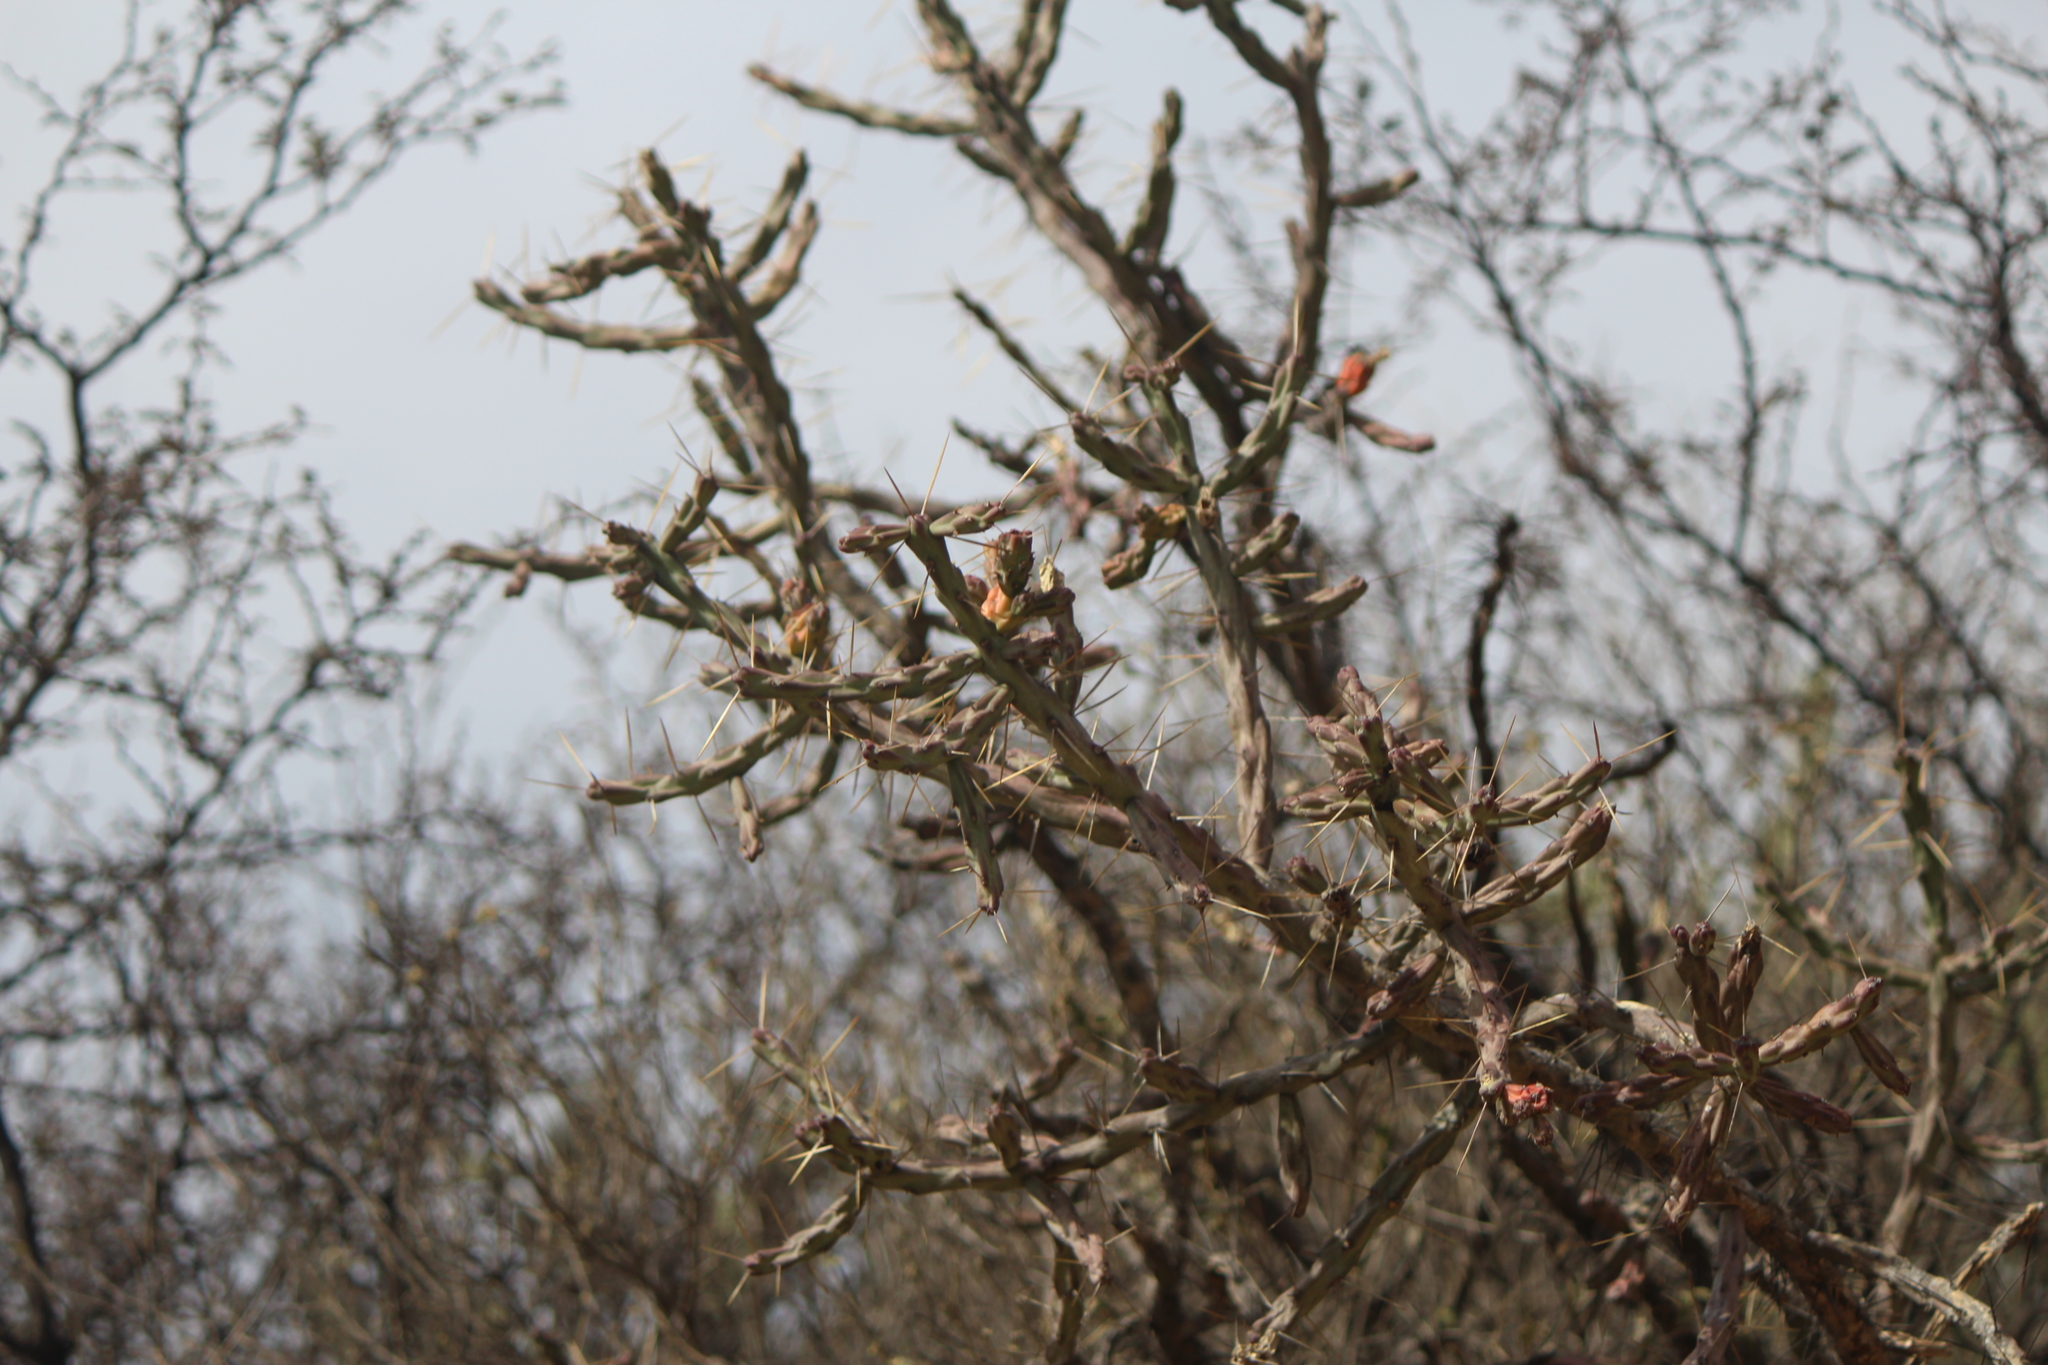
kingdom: Plantae
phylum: Tracheophyta
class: Magnoliopsida
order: Caryophyllales
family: Cactaceae
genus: Cylindropuntia
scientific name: Cylindropuntia kleiniae
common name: Klein's cholla
